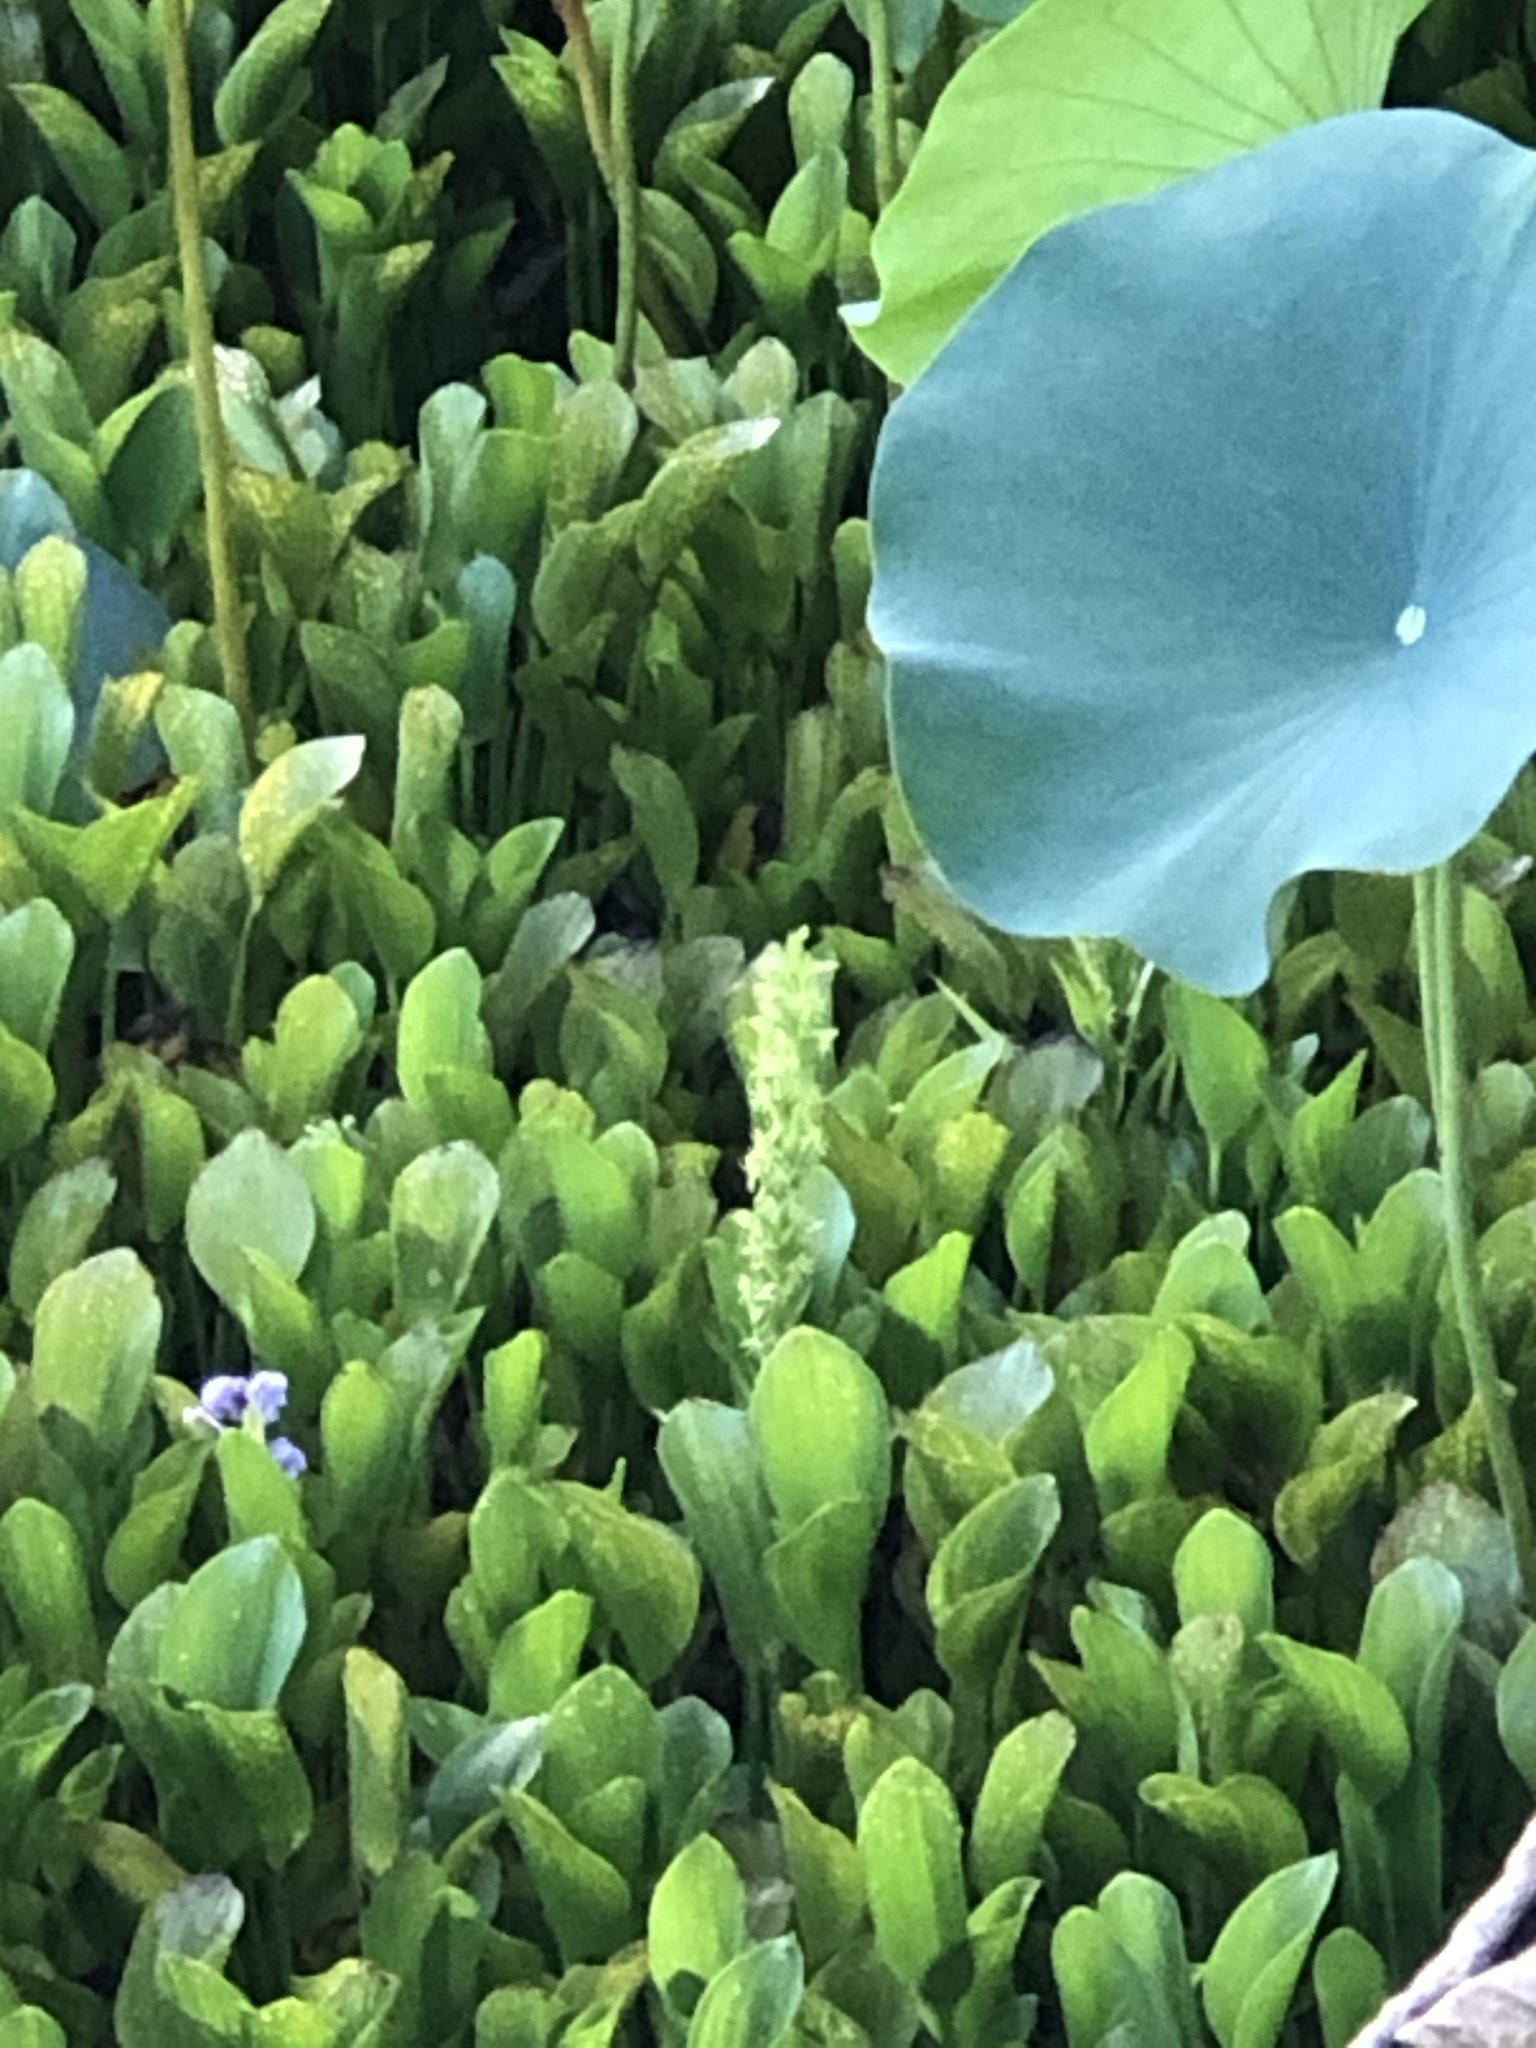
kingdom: Plantae
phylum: Tracheophyta
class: Liliopsida
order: Asparagales
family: Orchidaceae
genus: Habenaria
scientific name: Habenaria repens
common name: Water orchid
